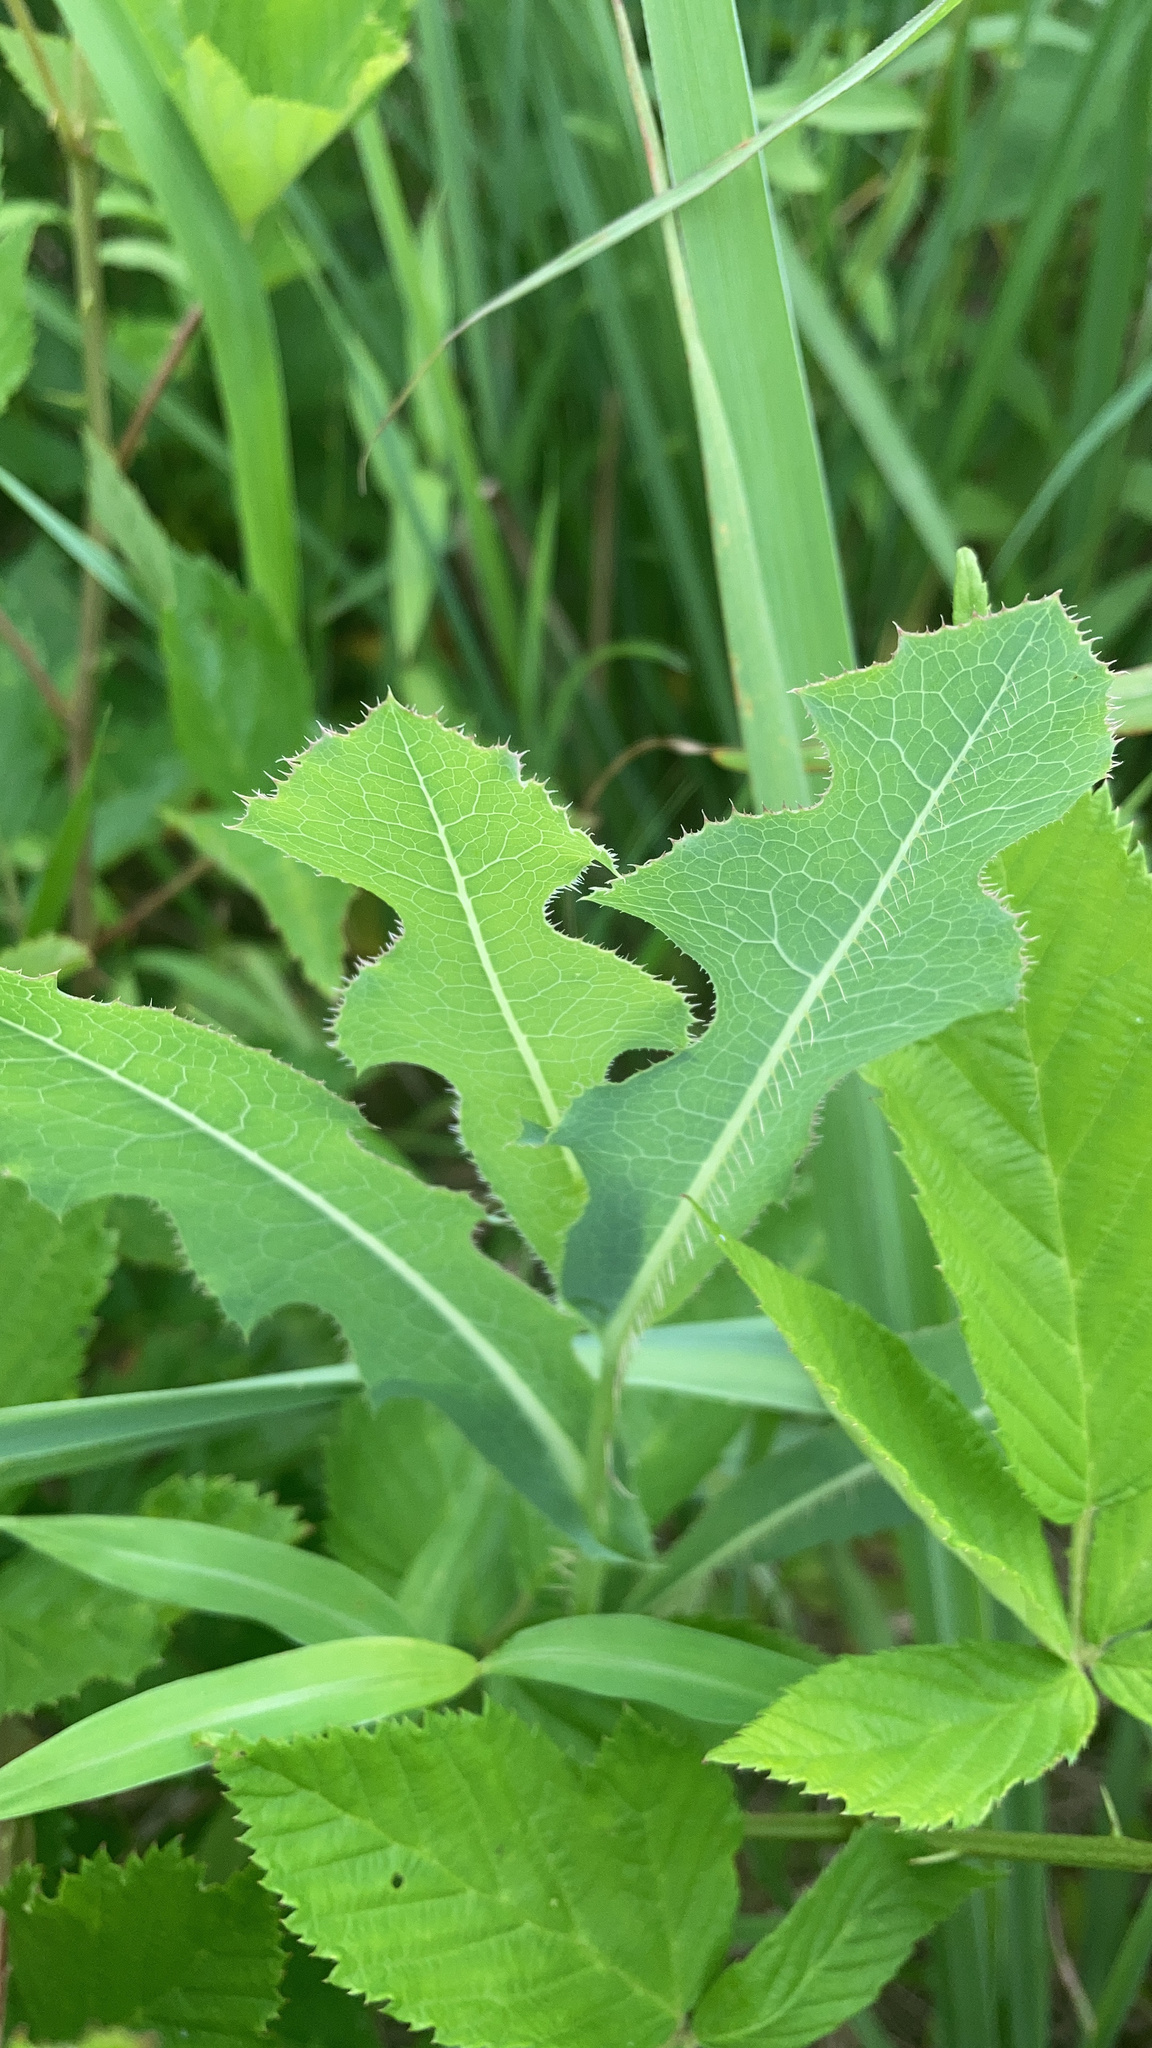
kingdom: Plantae
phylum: Tracheophyta
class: Magnoliopsida
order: Asterales
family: Asteraceae
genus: Lactuca
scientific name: Lactuca serriola
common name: Prickly lettuce
